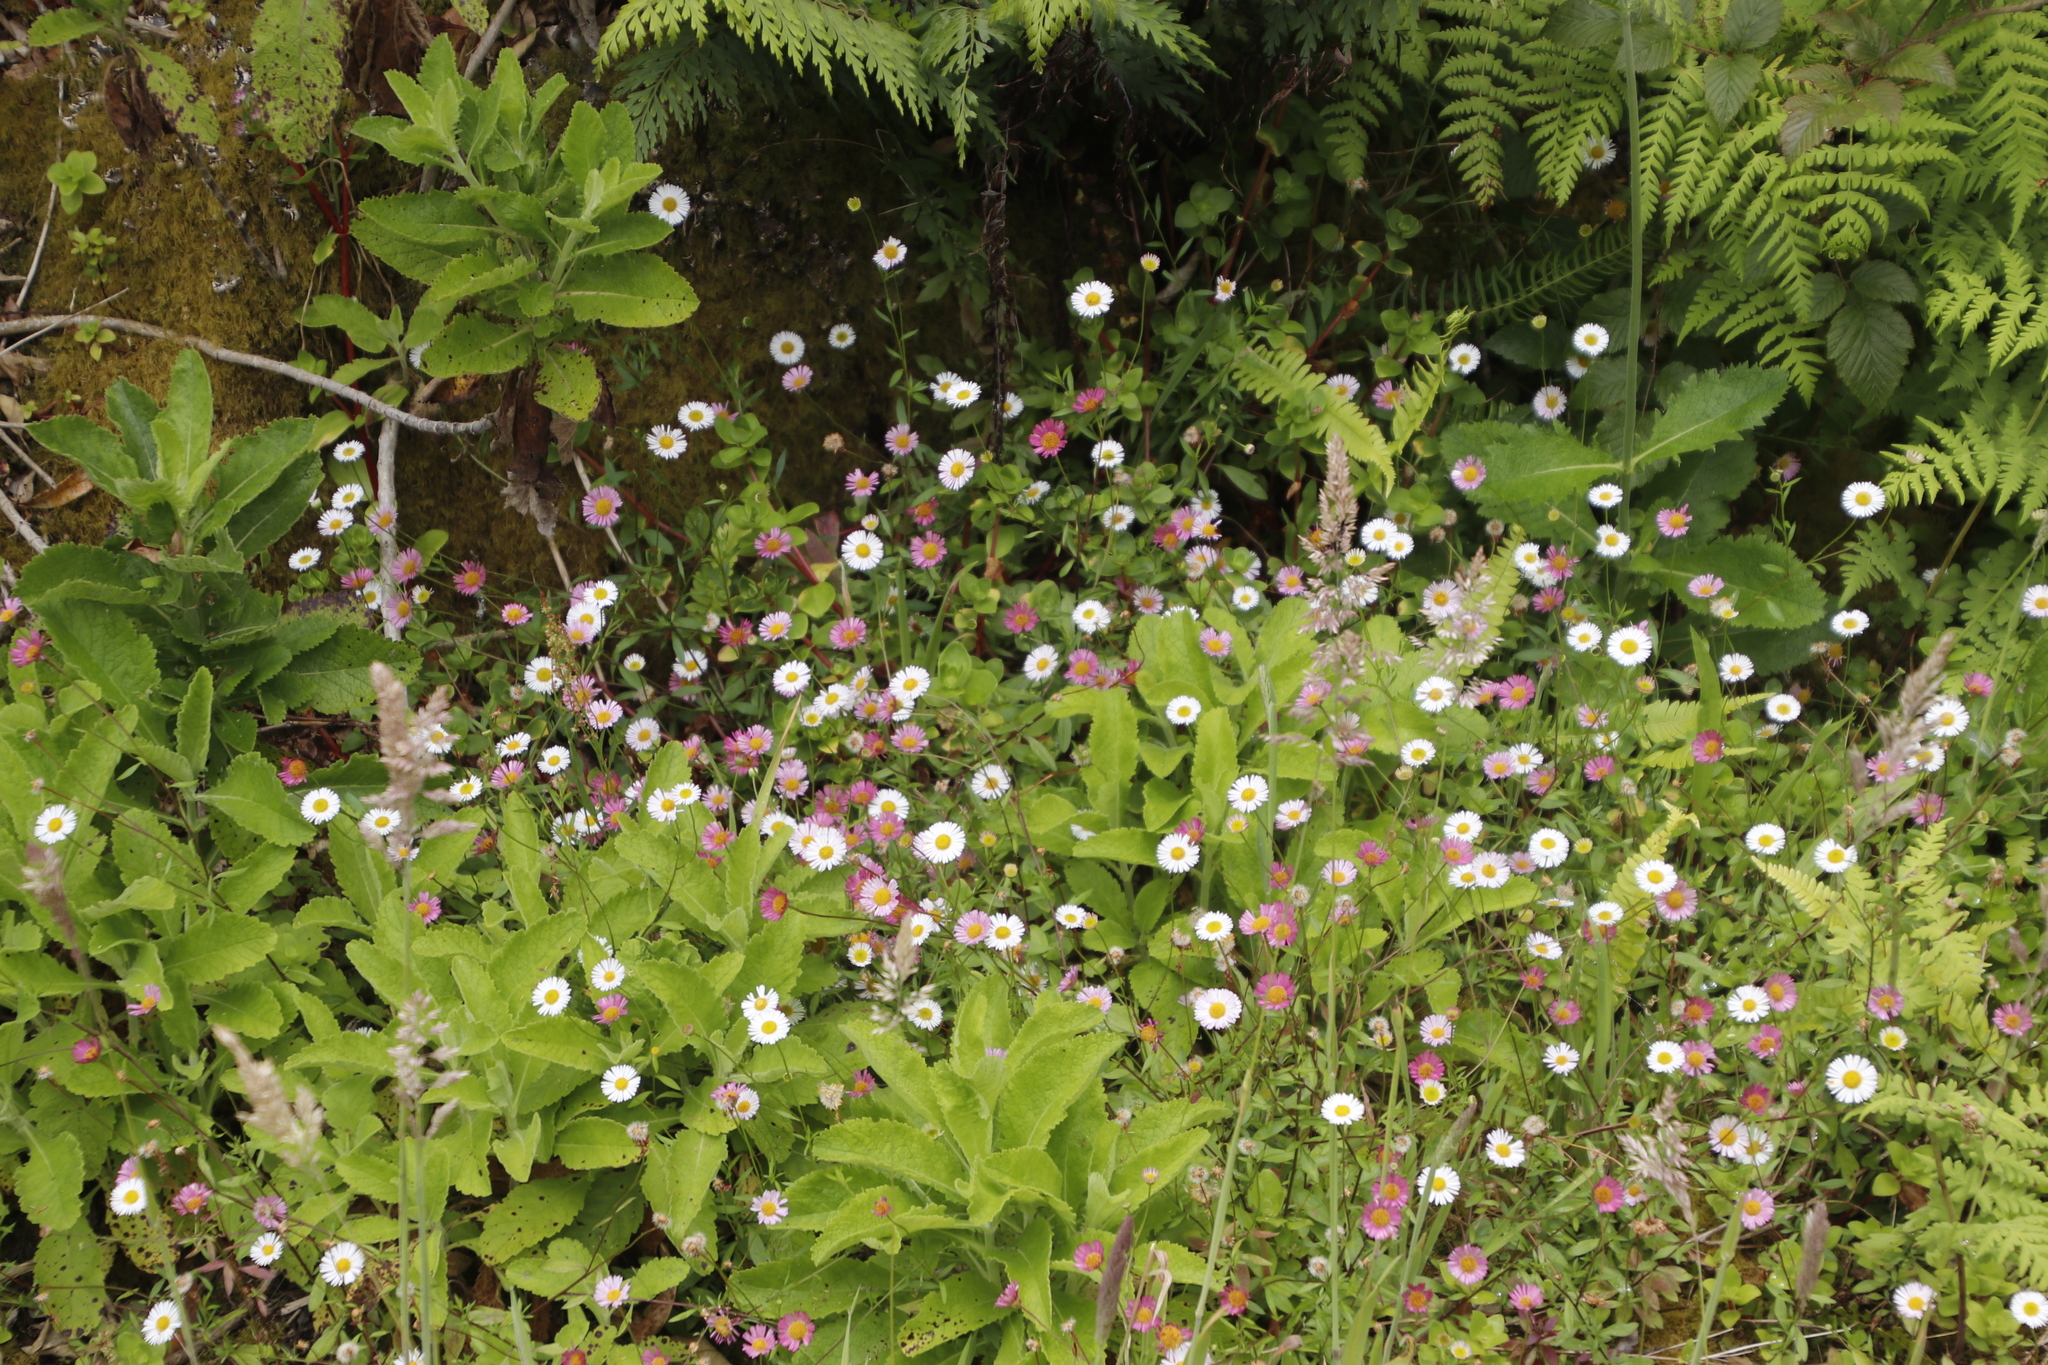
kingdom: Plantae
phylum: Tracheophyta
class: Magnoliopsida
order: Asterales
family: Asteraceae
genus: Erigeron
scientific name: Erigeron karvinskianus
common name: Mexican fleabane
